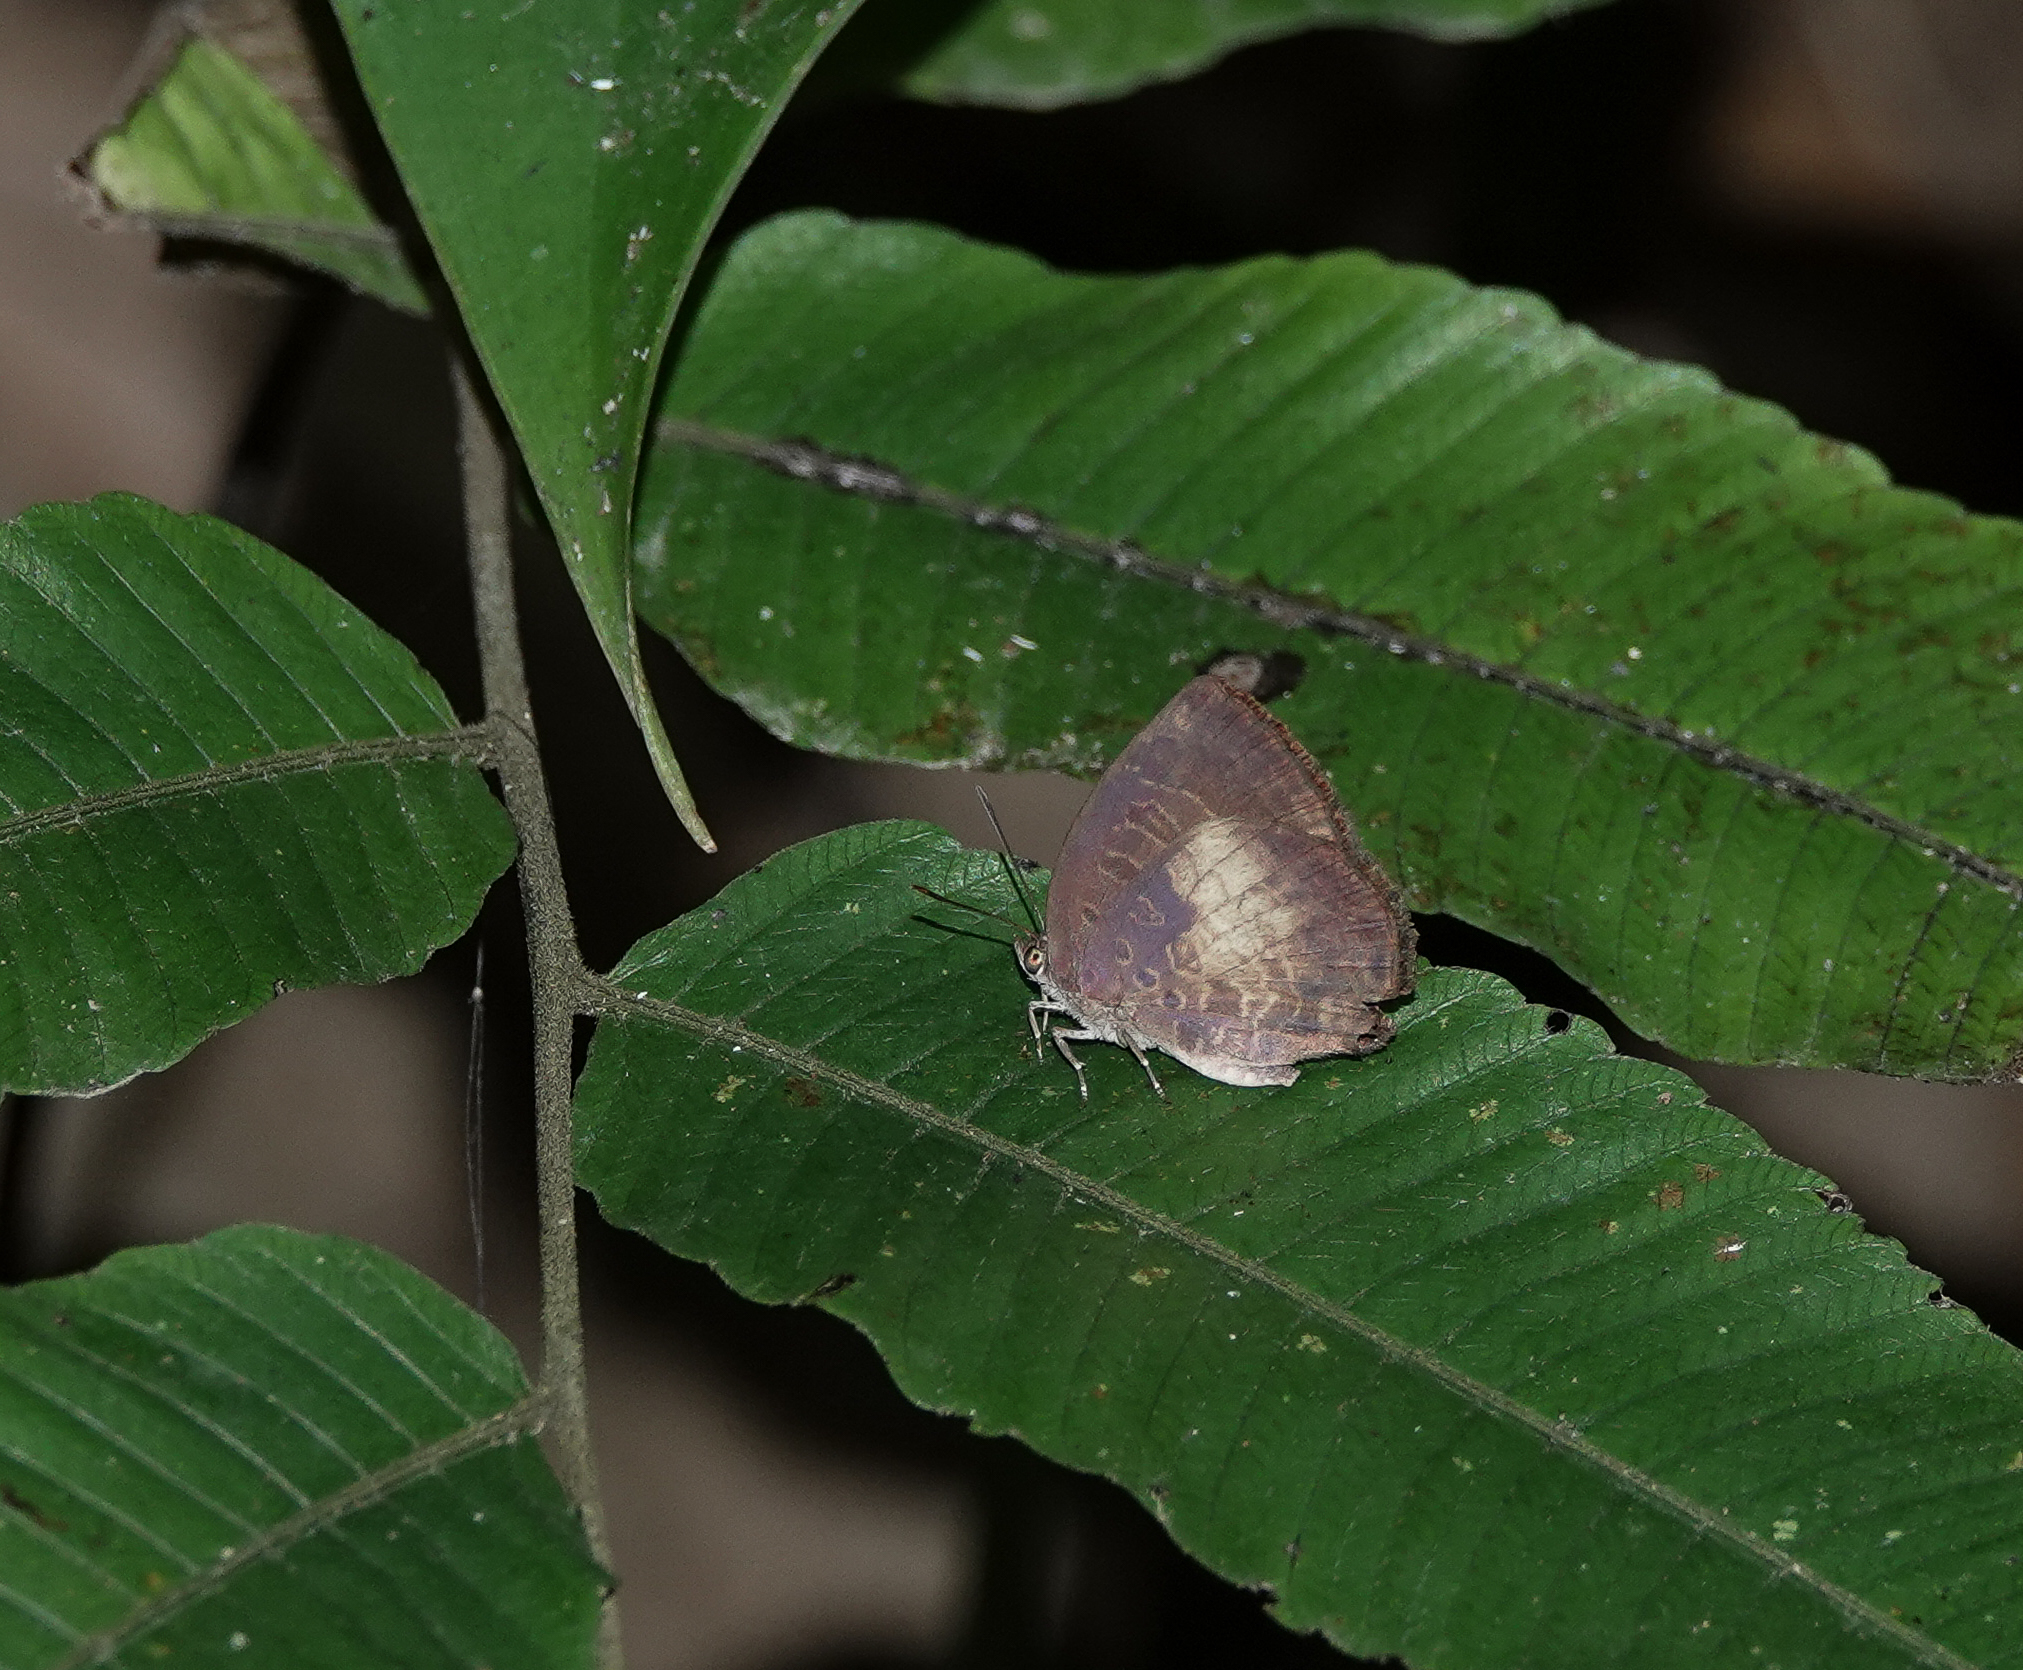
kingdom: Animalia
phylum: Arthropoda
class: Insecta
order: Lepidoptera
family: Lycaenidae
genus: Arhopala
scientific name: Arhopala perimuta
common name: Yellowdisc oakblue
